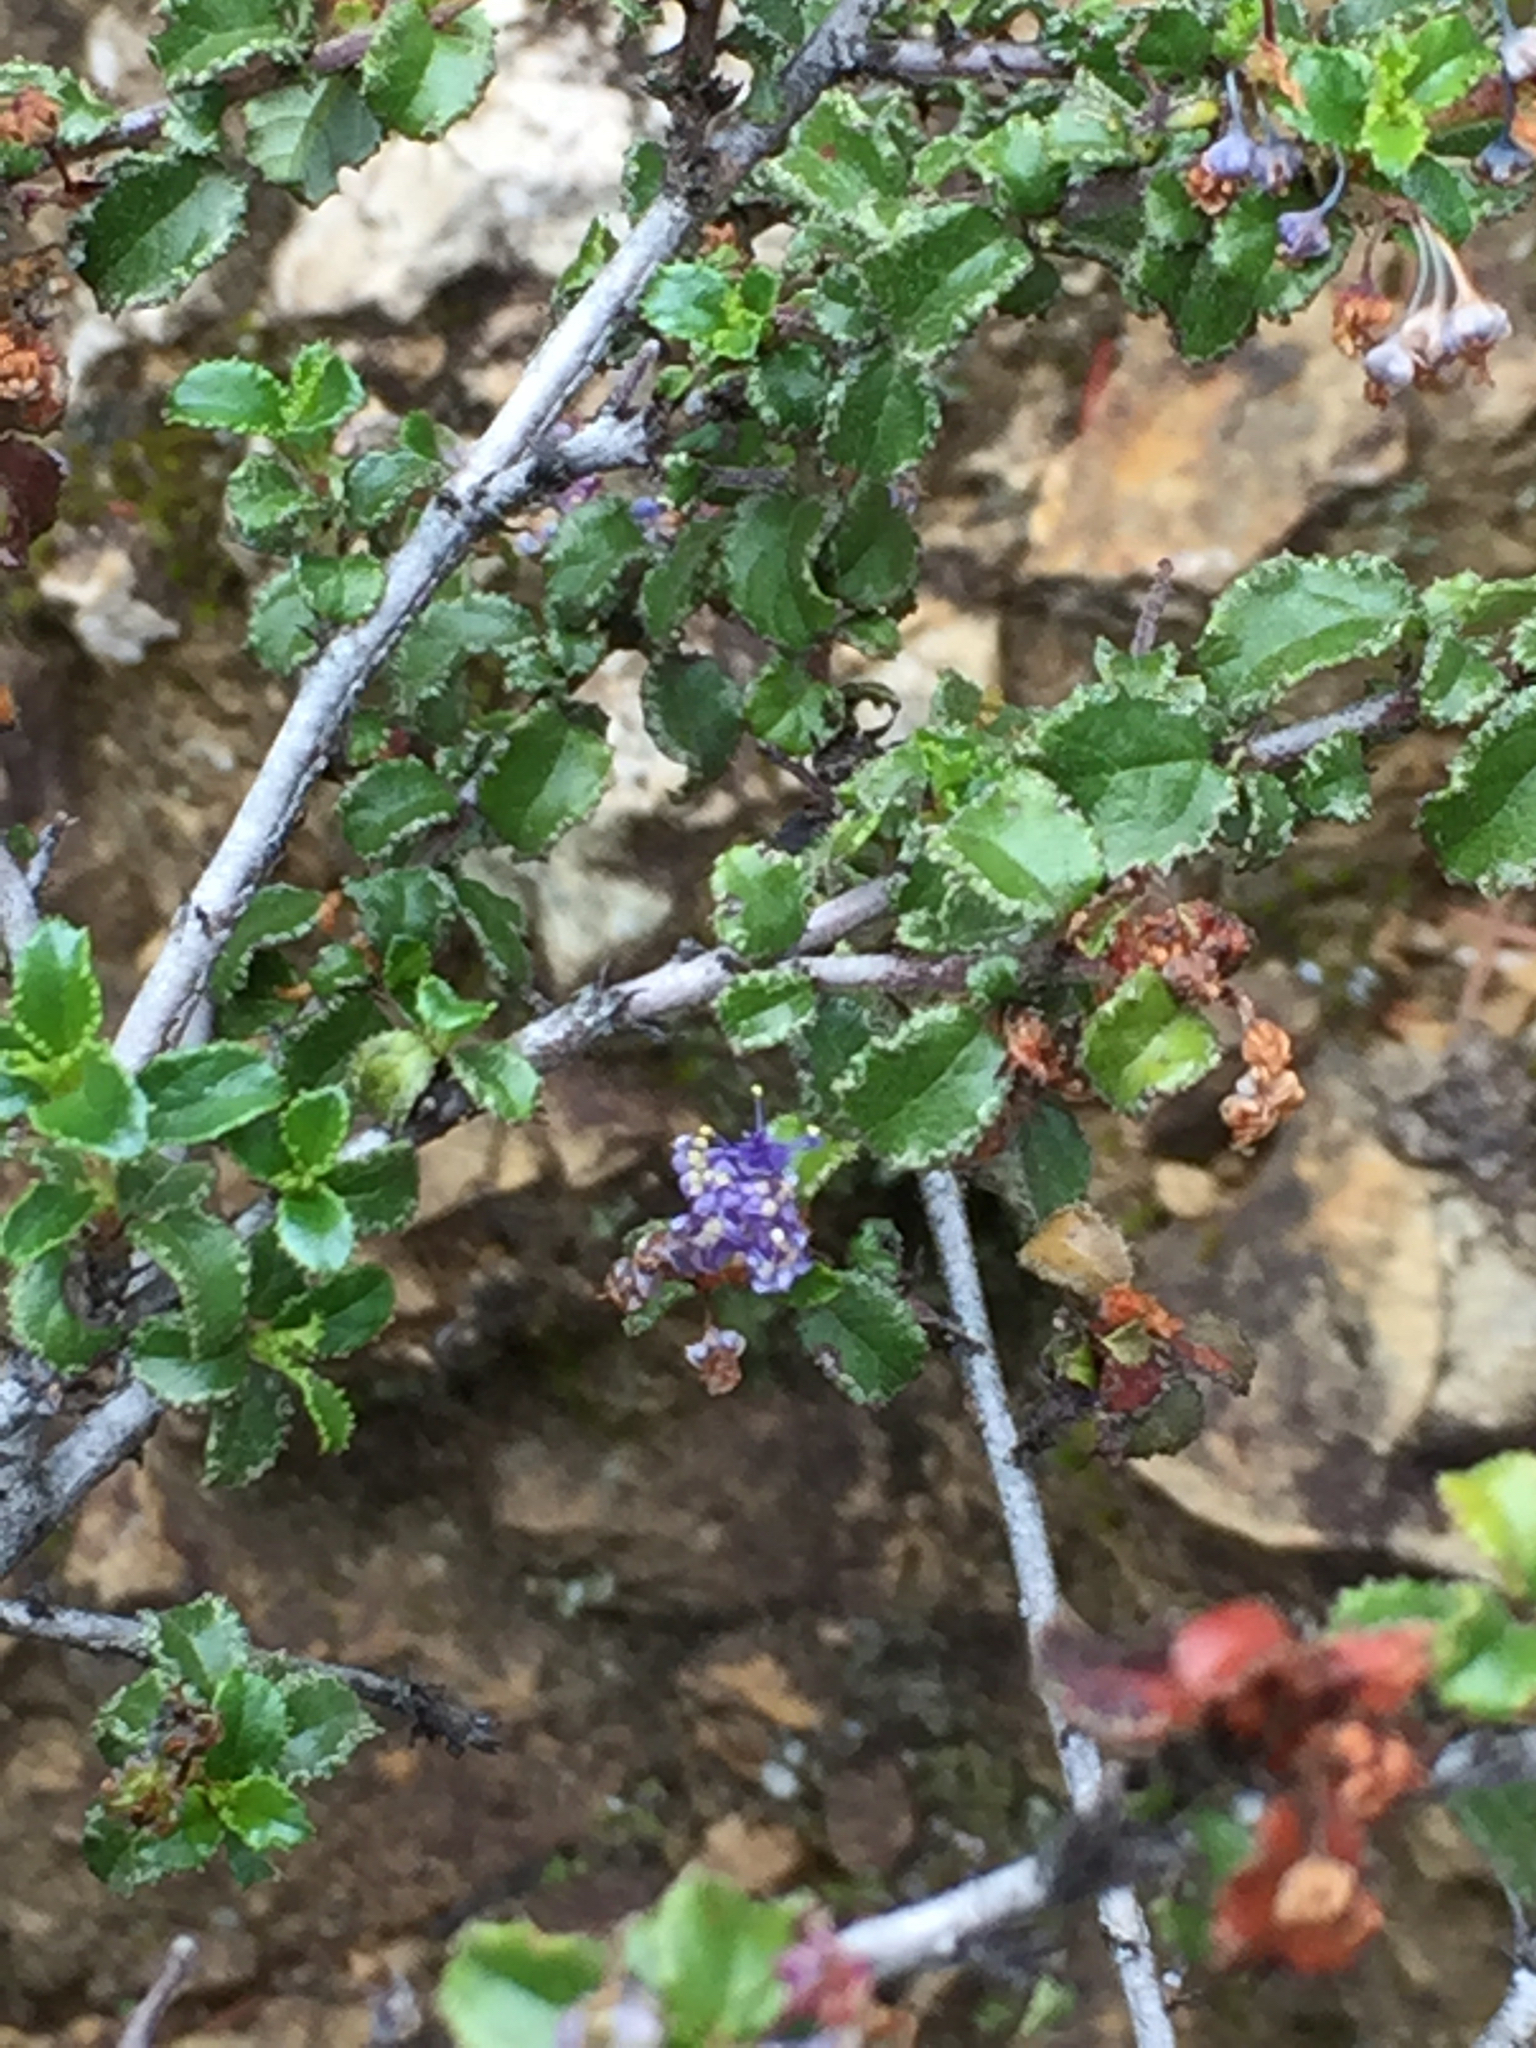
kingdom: Plantae
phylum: Tracheophyta
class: Magnoliopsida
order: Rosales
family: Rhamnaceae
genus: Ceanothus
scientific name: Ceanothus foliosus
